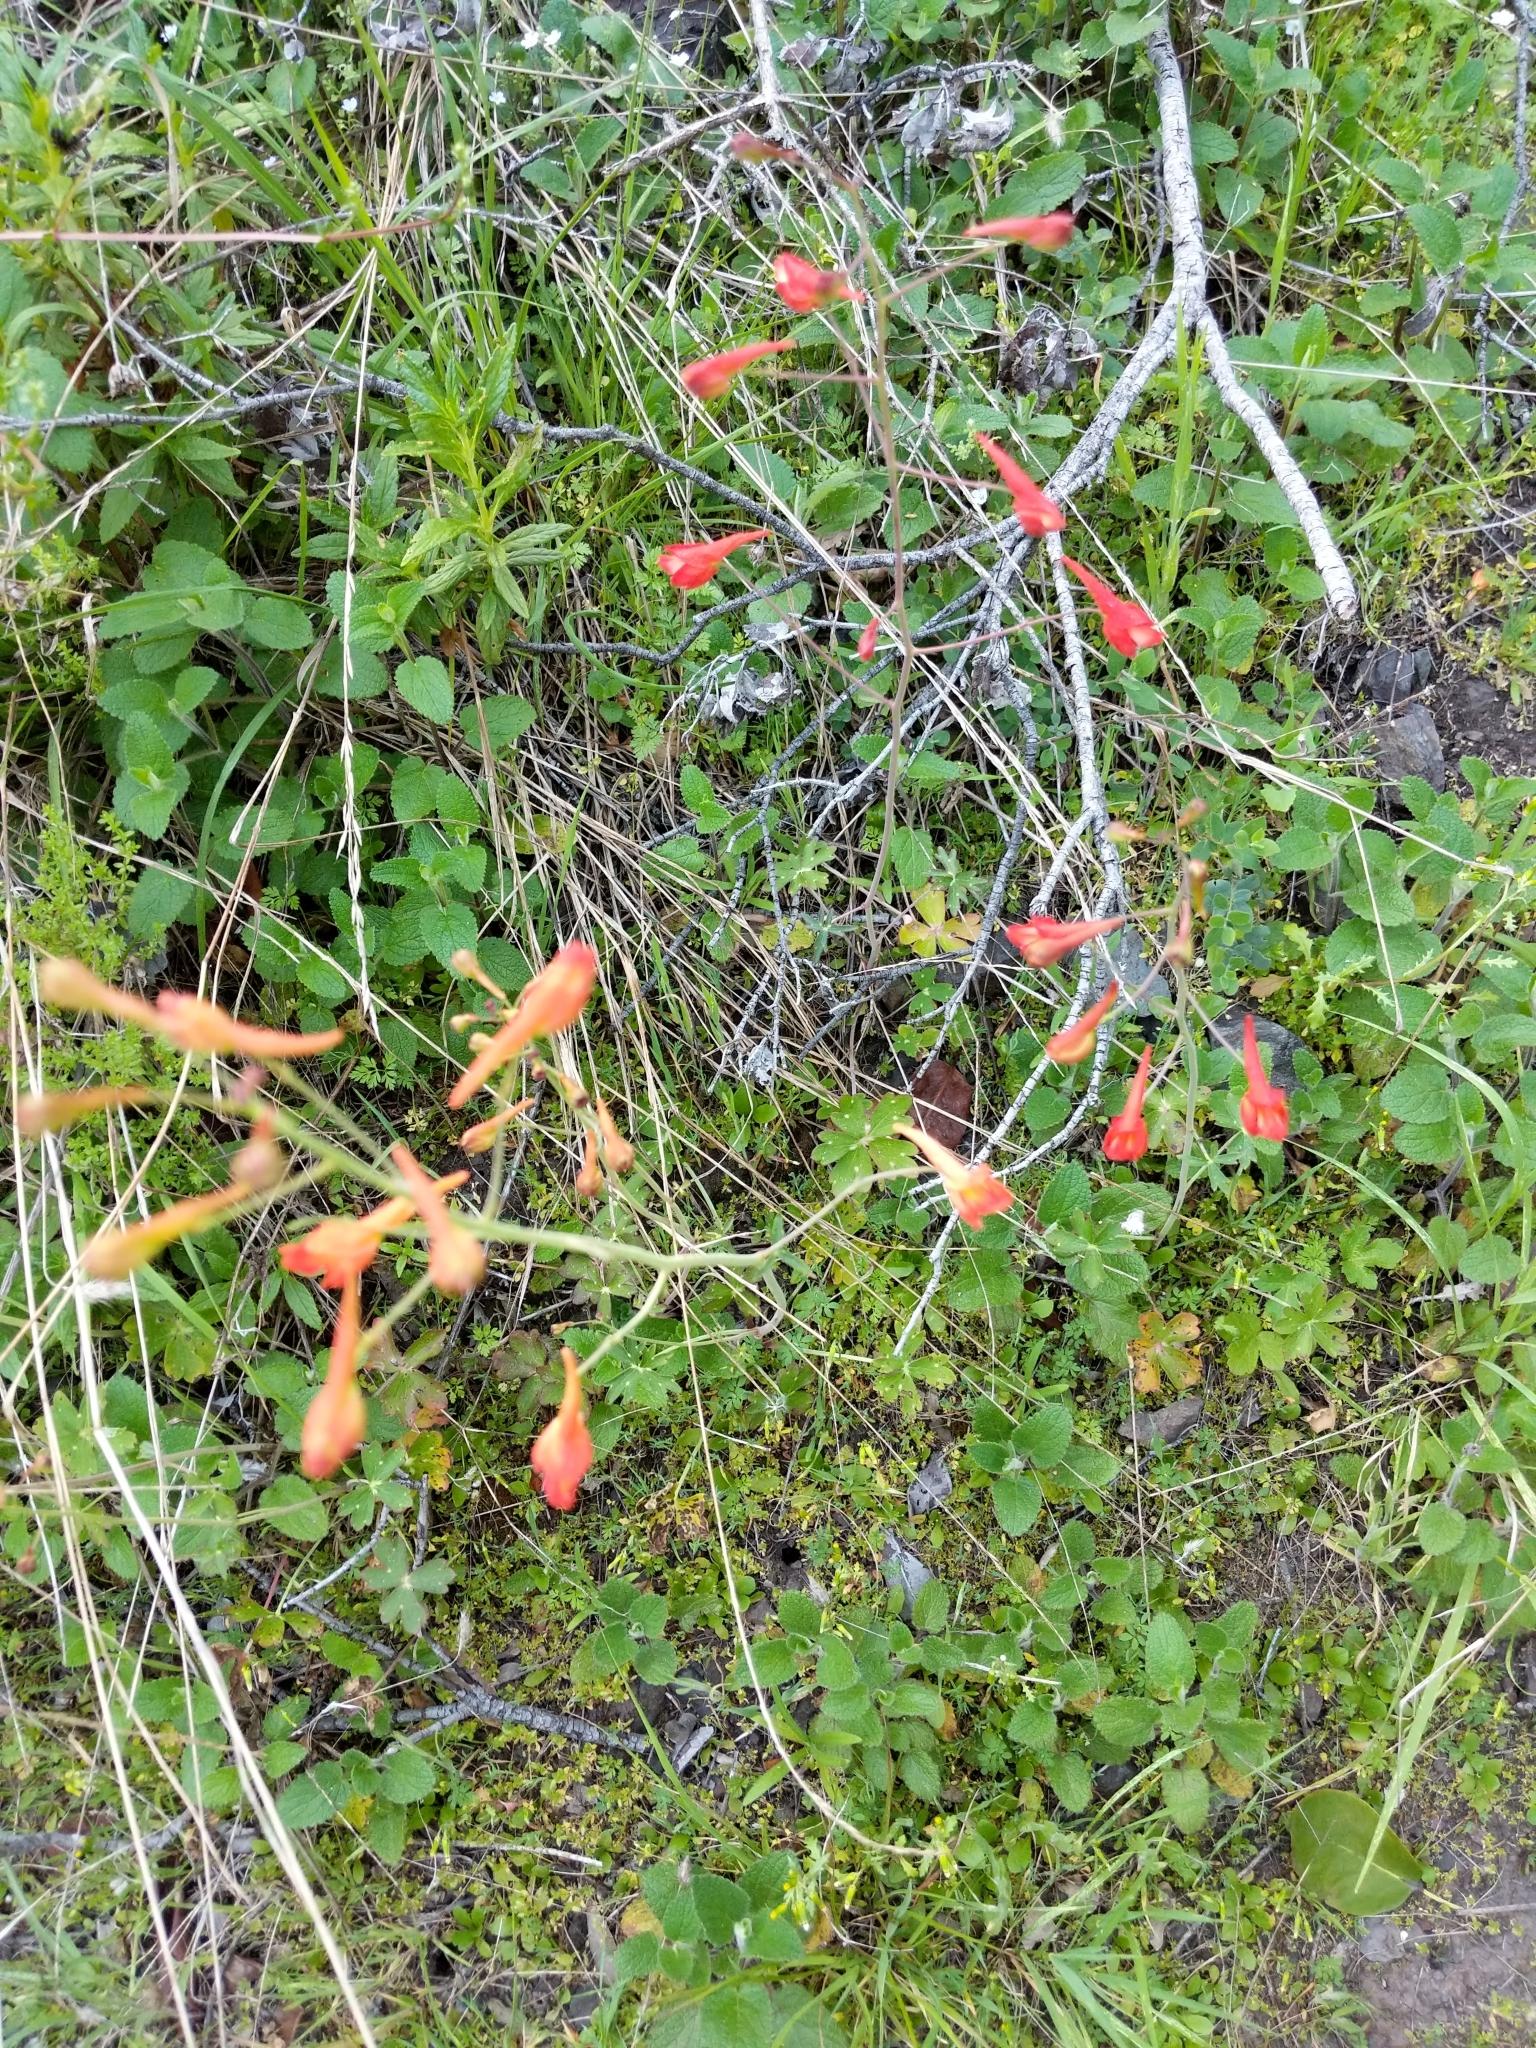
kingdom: Plantae
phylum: Tracheophyta
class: Magnoliopsida
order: Ranunculales
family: Ranunculaceae
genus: Delphinium
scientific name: Delphinium nudicaule
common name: Red larkspur
